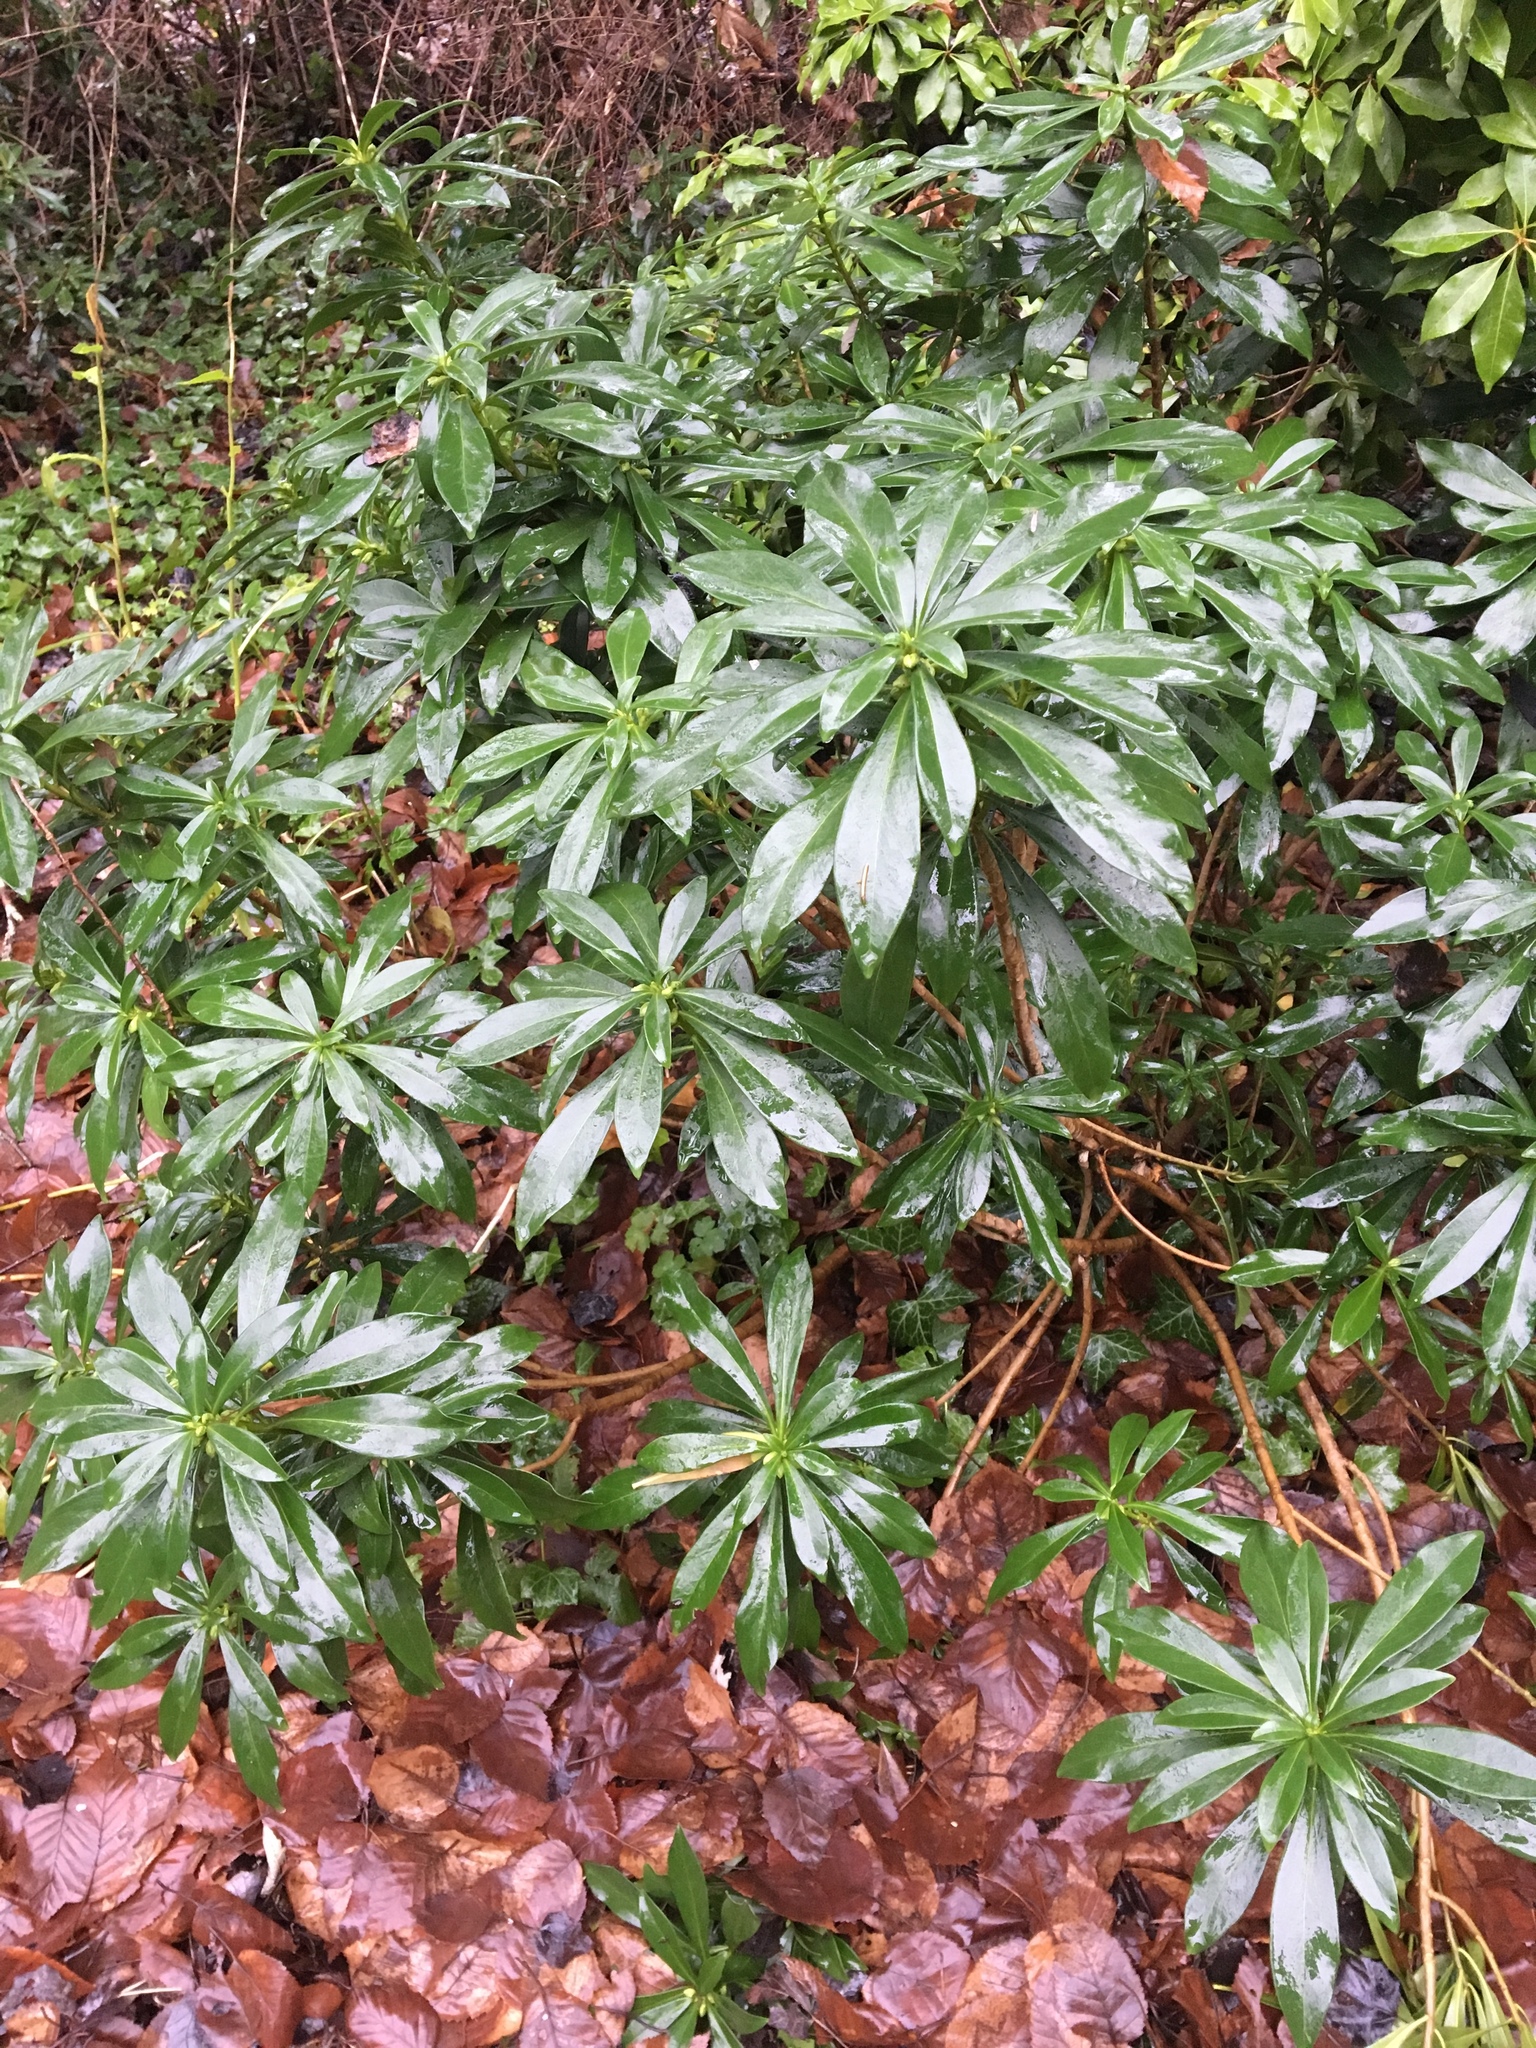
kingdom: Plantae
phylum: Tracheophyta
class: Magnoliopsida
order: Malvales
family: Thymelaeaceae
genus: Daphne
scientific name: Daphne laureola
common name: Spurge-laurel
